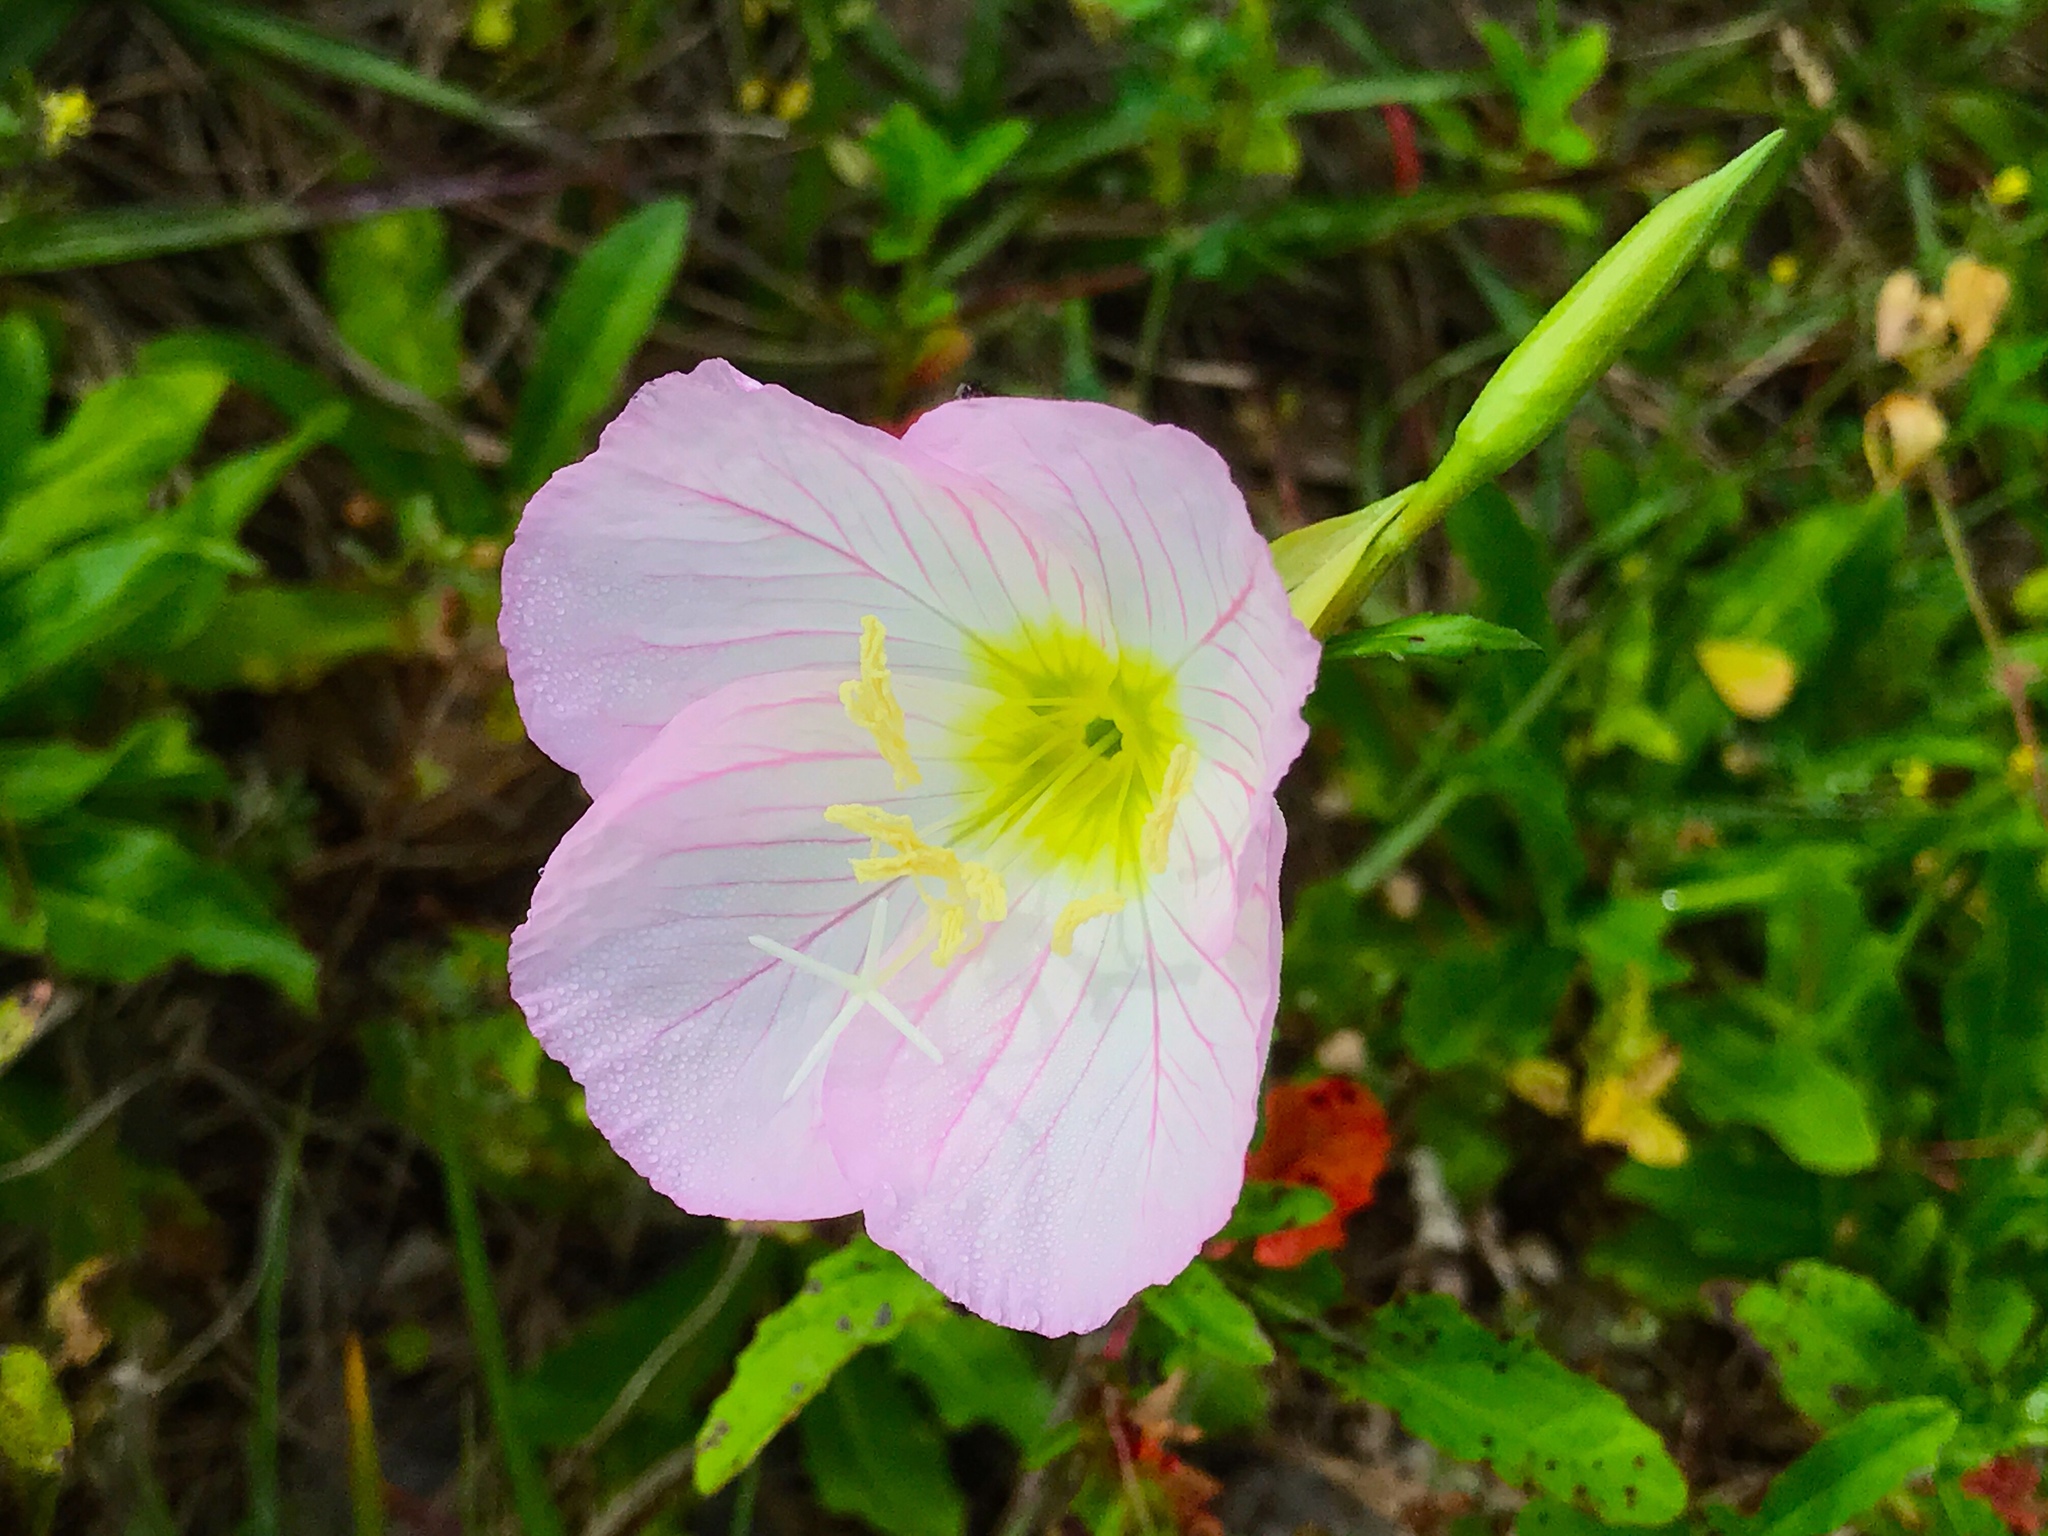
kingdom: Plantae
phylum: Tracheophyta
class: Magnoliopsida
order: Myrtales
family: Onagraceae
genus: Oenothera
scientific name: Oenothera speciosa
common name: White evening-primrose
